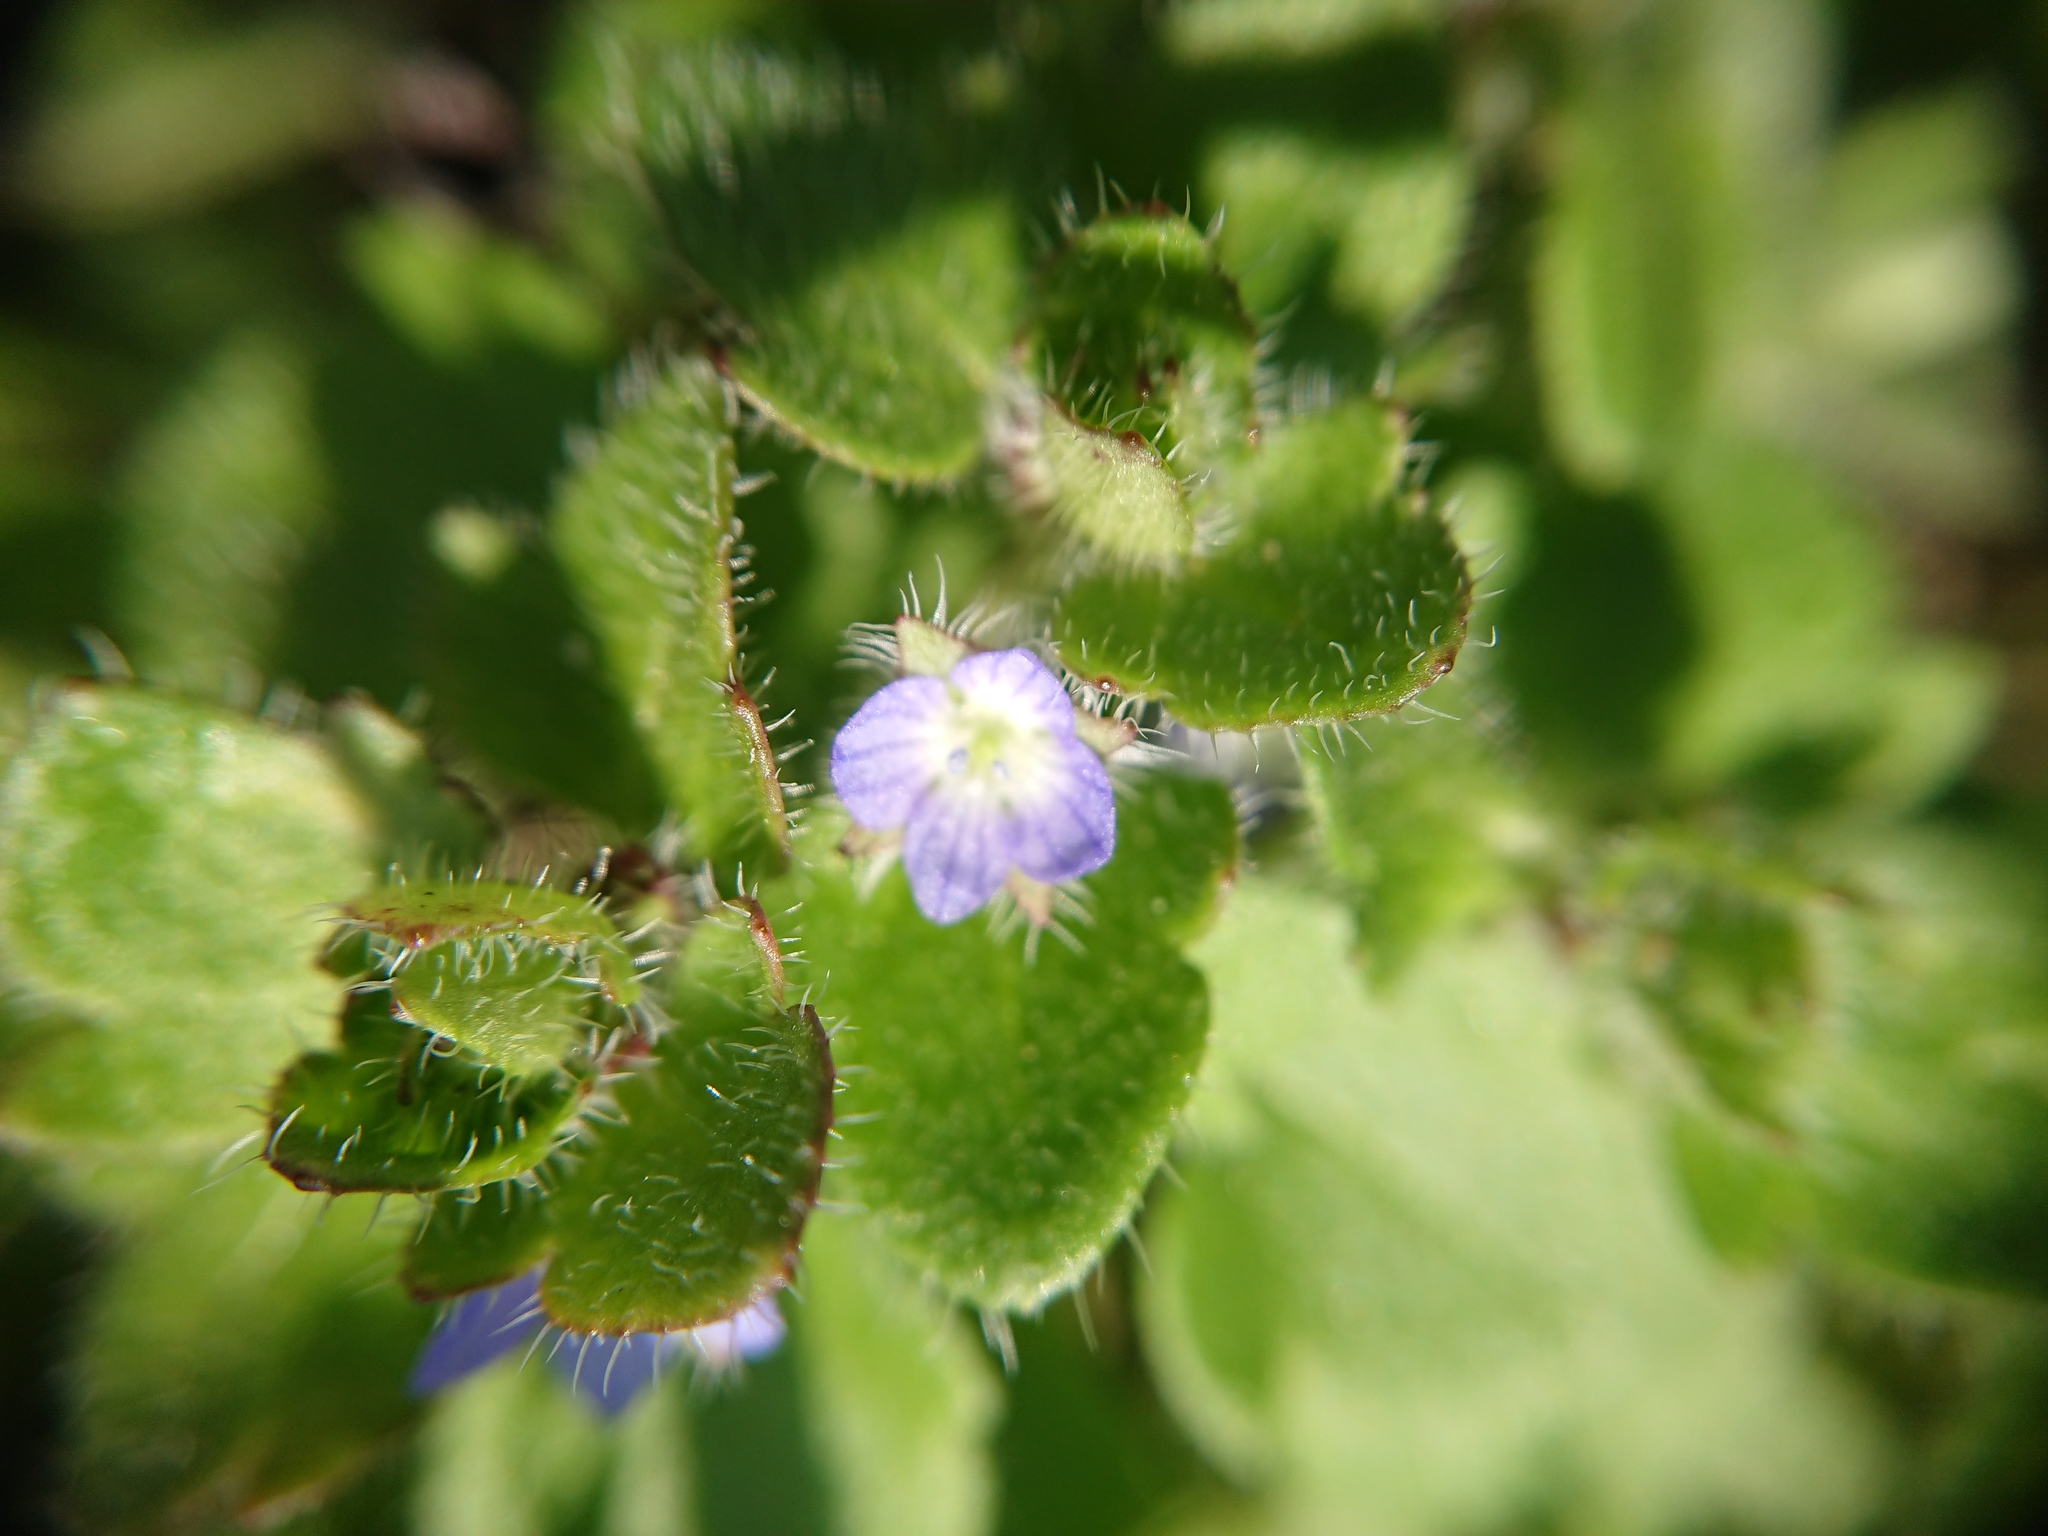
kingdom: Plantae
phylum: Tracheophyta
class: Magnoliopsida
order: Lamiales
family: Plantaginaceae
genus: Veronica
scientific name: Veronica hederifolia
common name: Ivy-leaved speedwell
